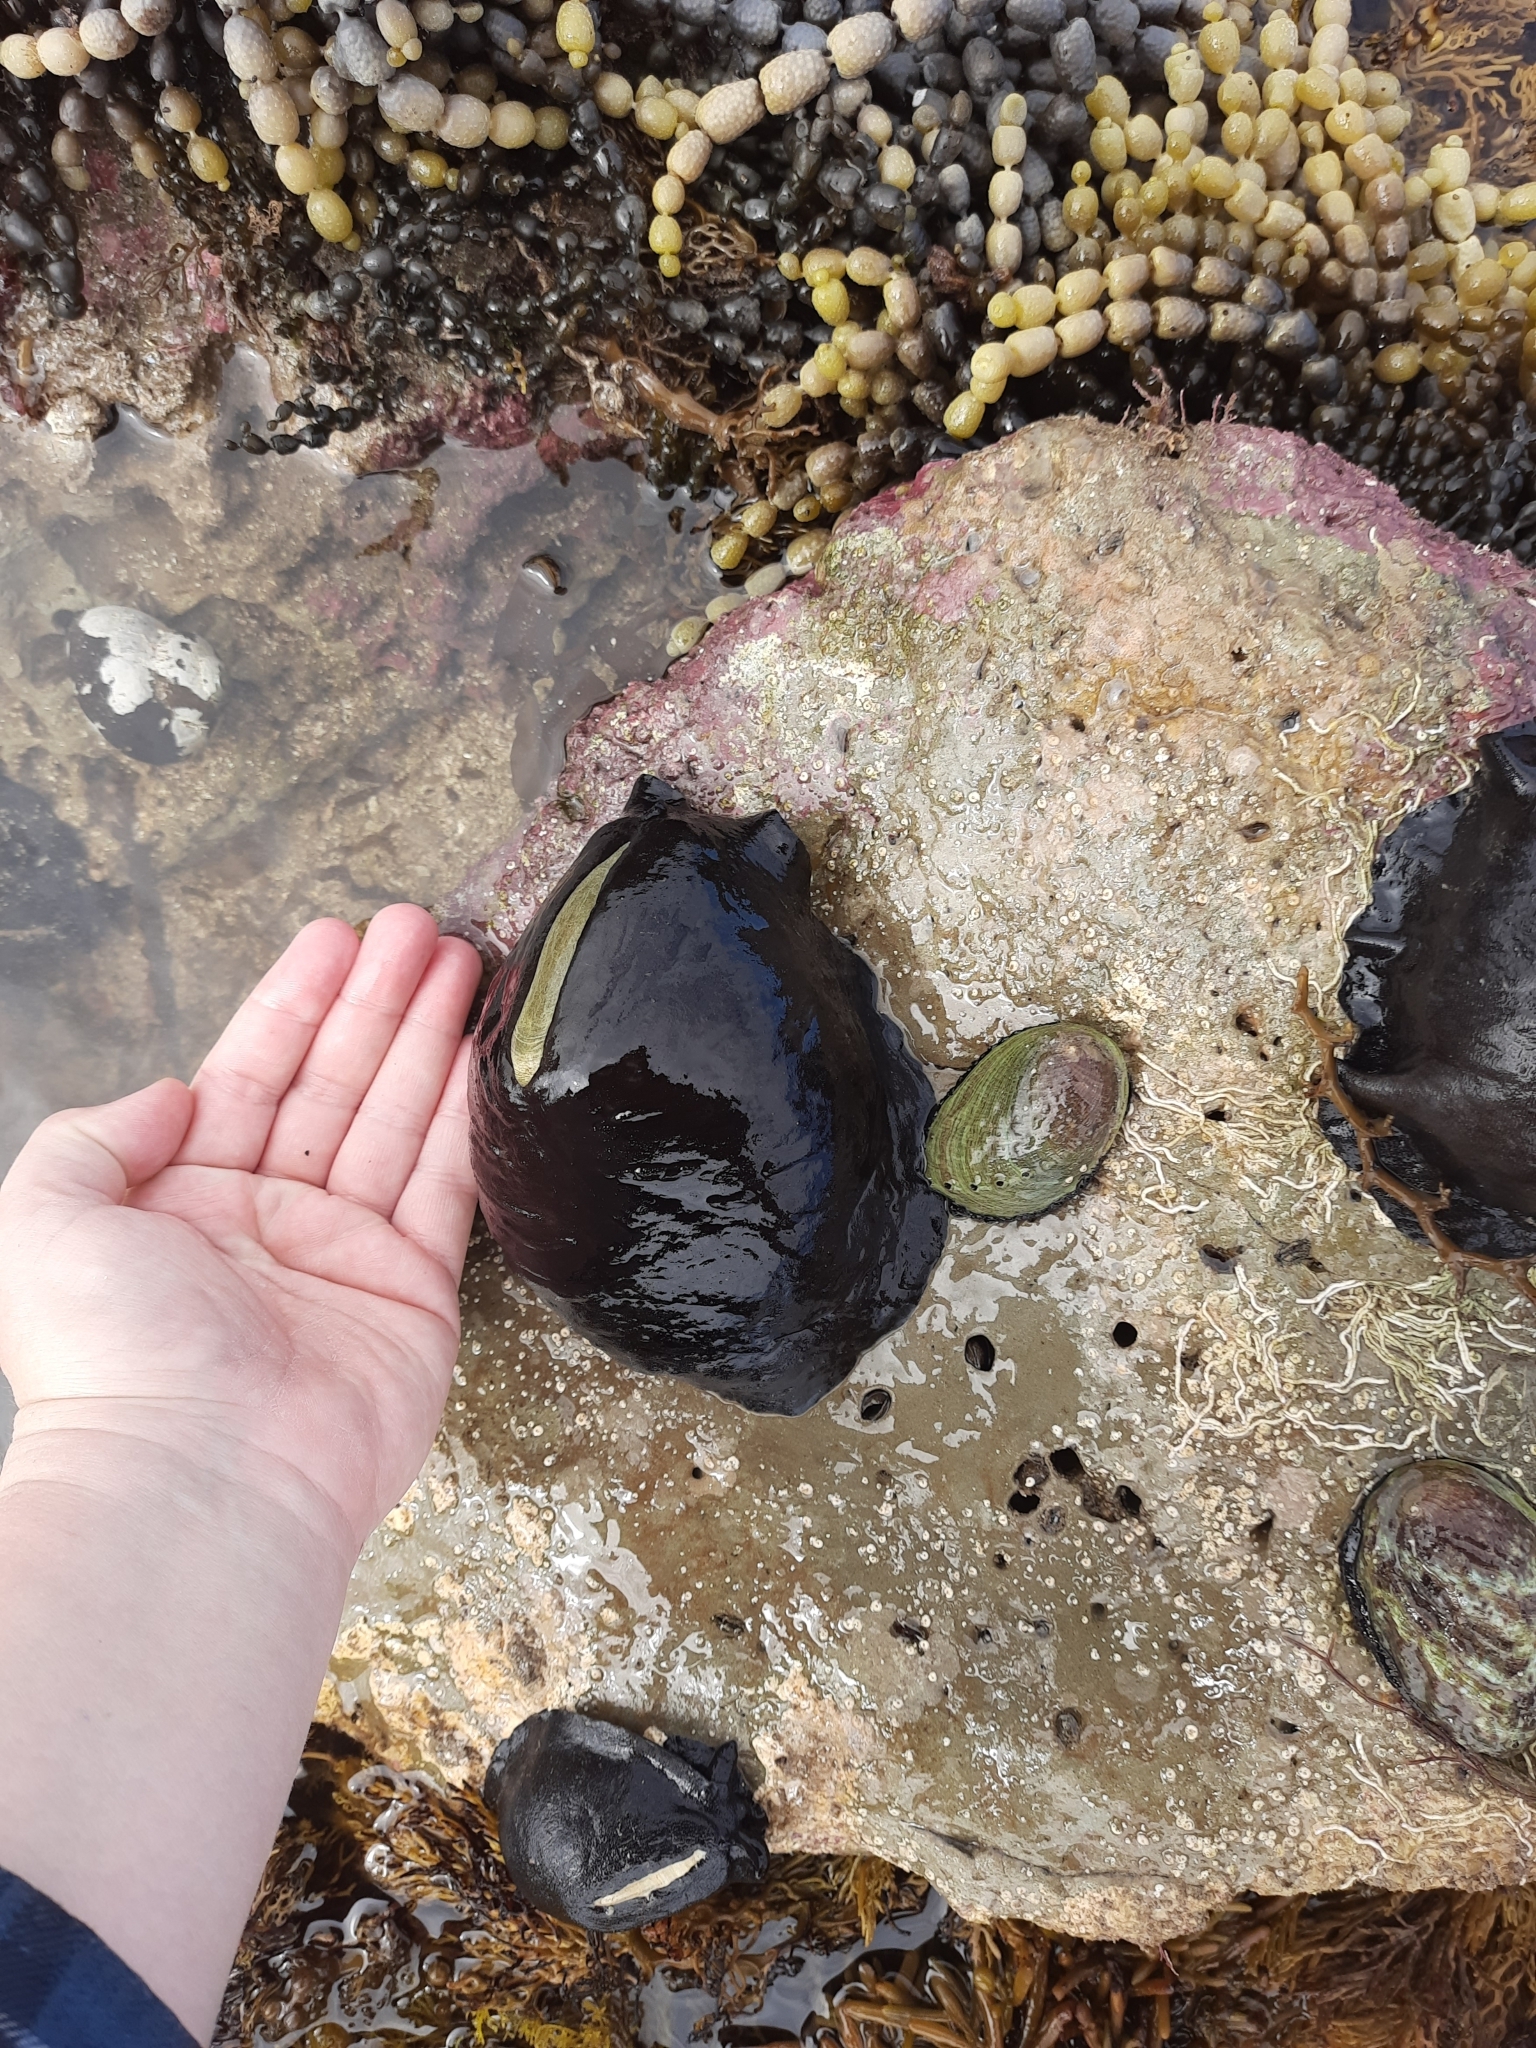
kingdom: Animalia
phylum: Mollusca
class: Gastropoda
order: Lepetellida
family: Fissurellidae
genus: Scutus
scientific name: Scutus breviculus
